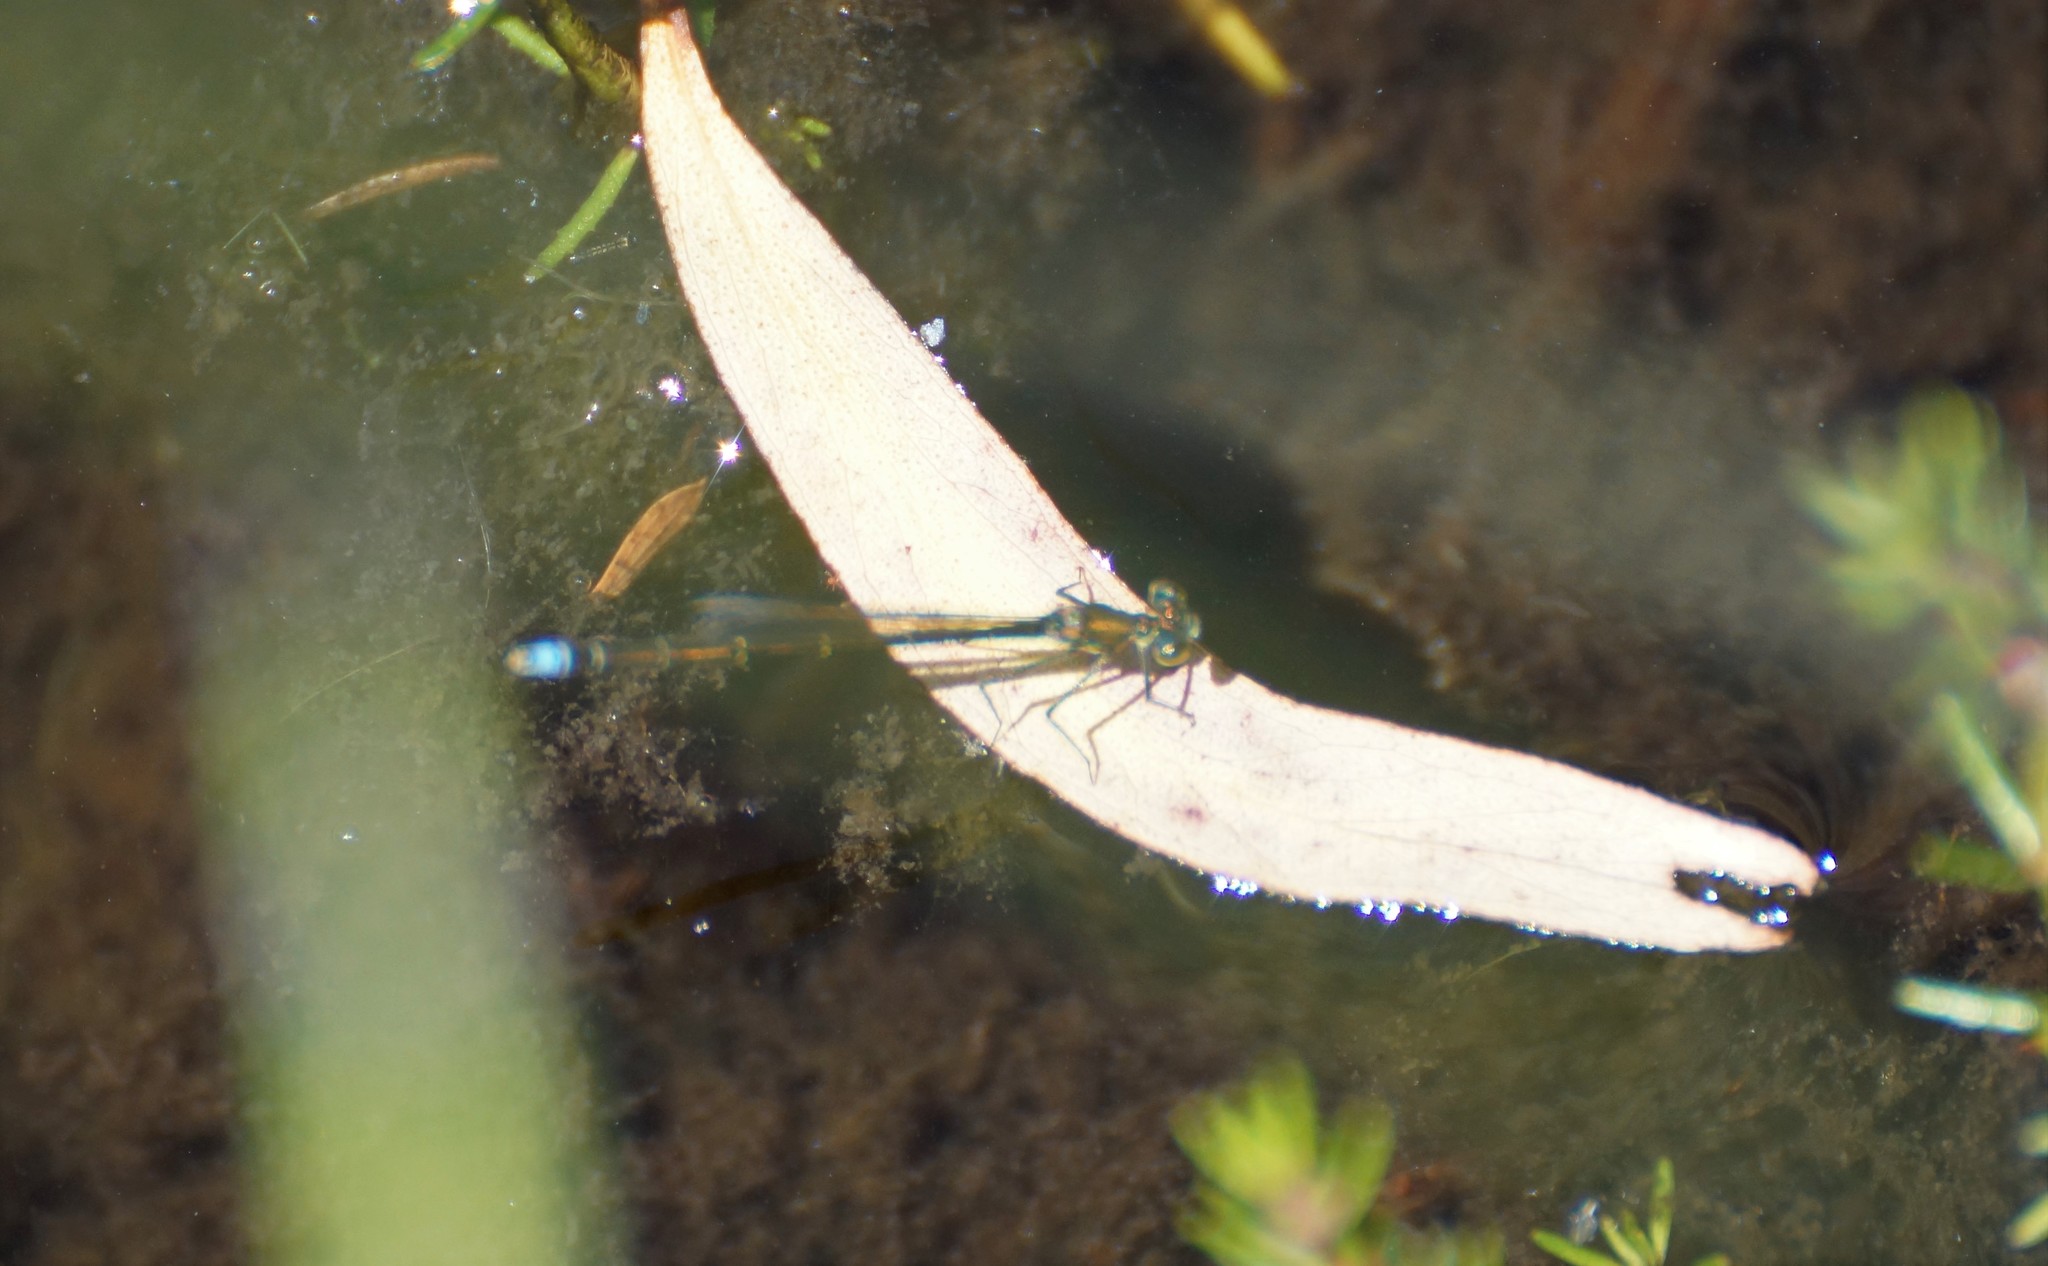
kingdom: Animalia
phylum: Arthropoda
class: Insecta
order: Odonata
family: Coenagrionidae
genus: Austrocnemis
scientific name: Austrocnemis splendida
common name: Splendid longlegs
